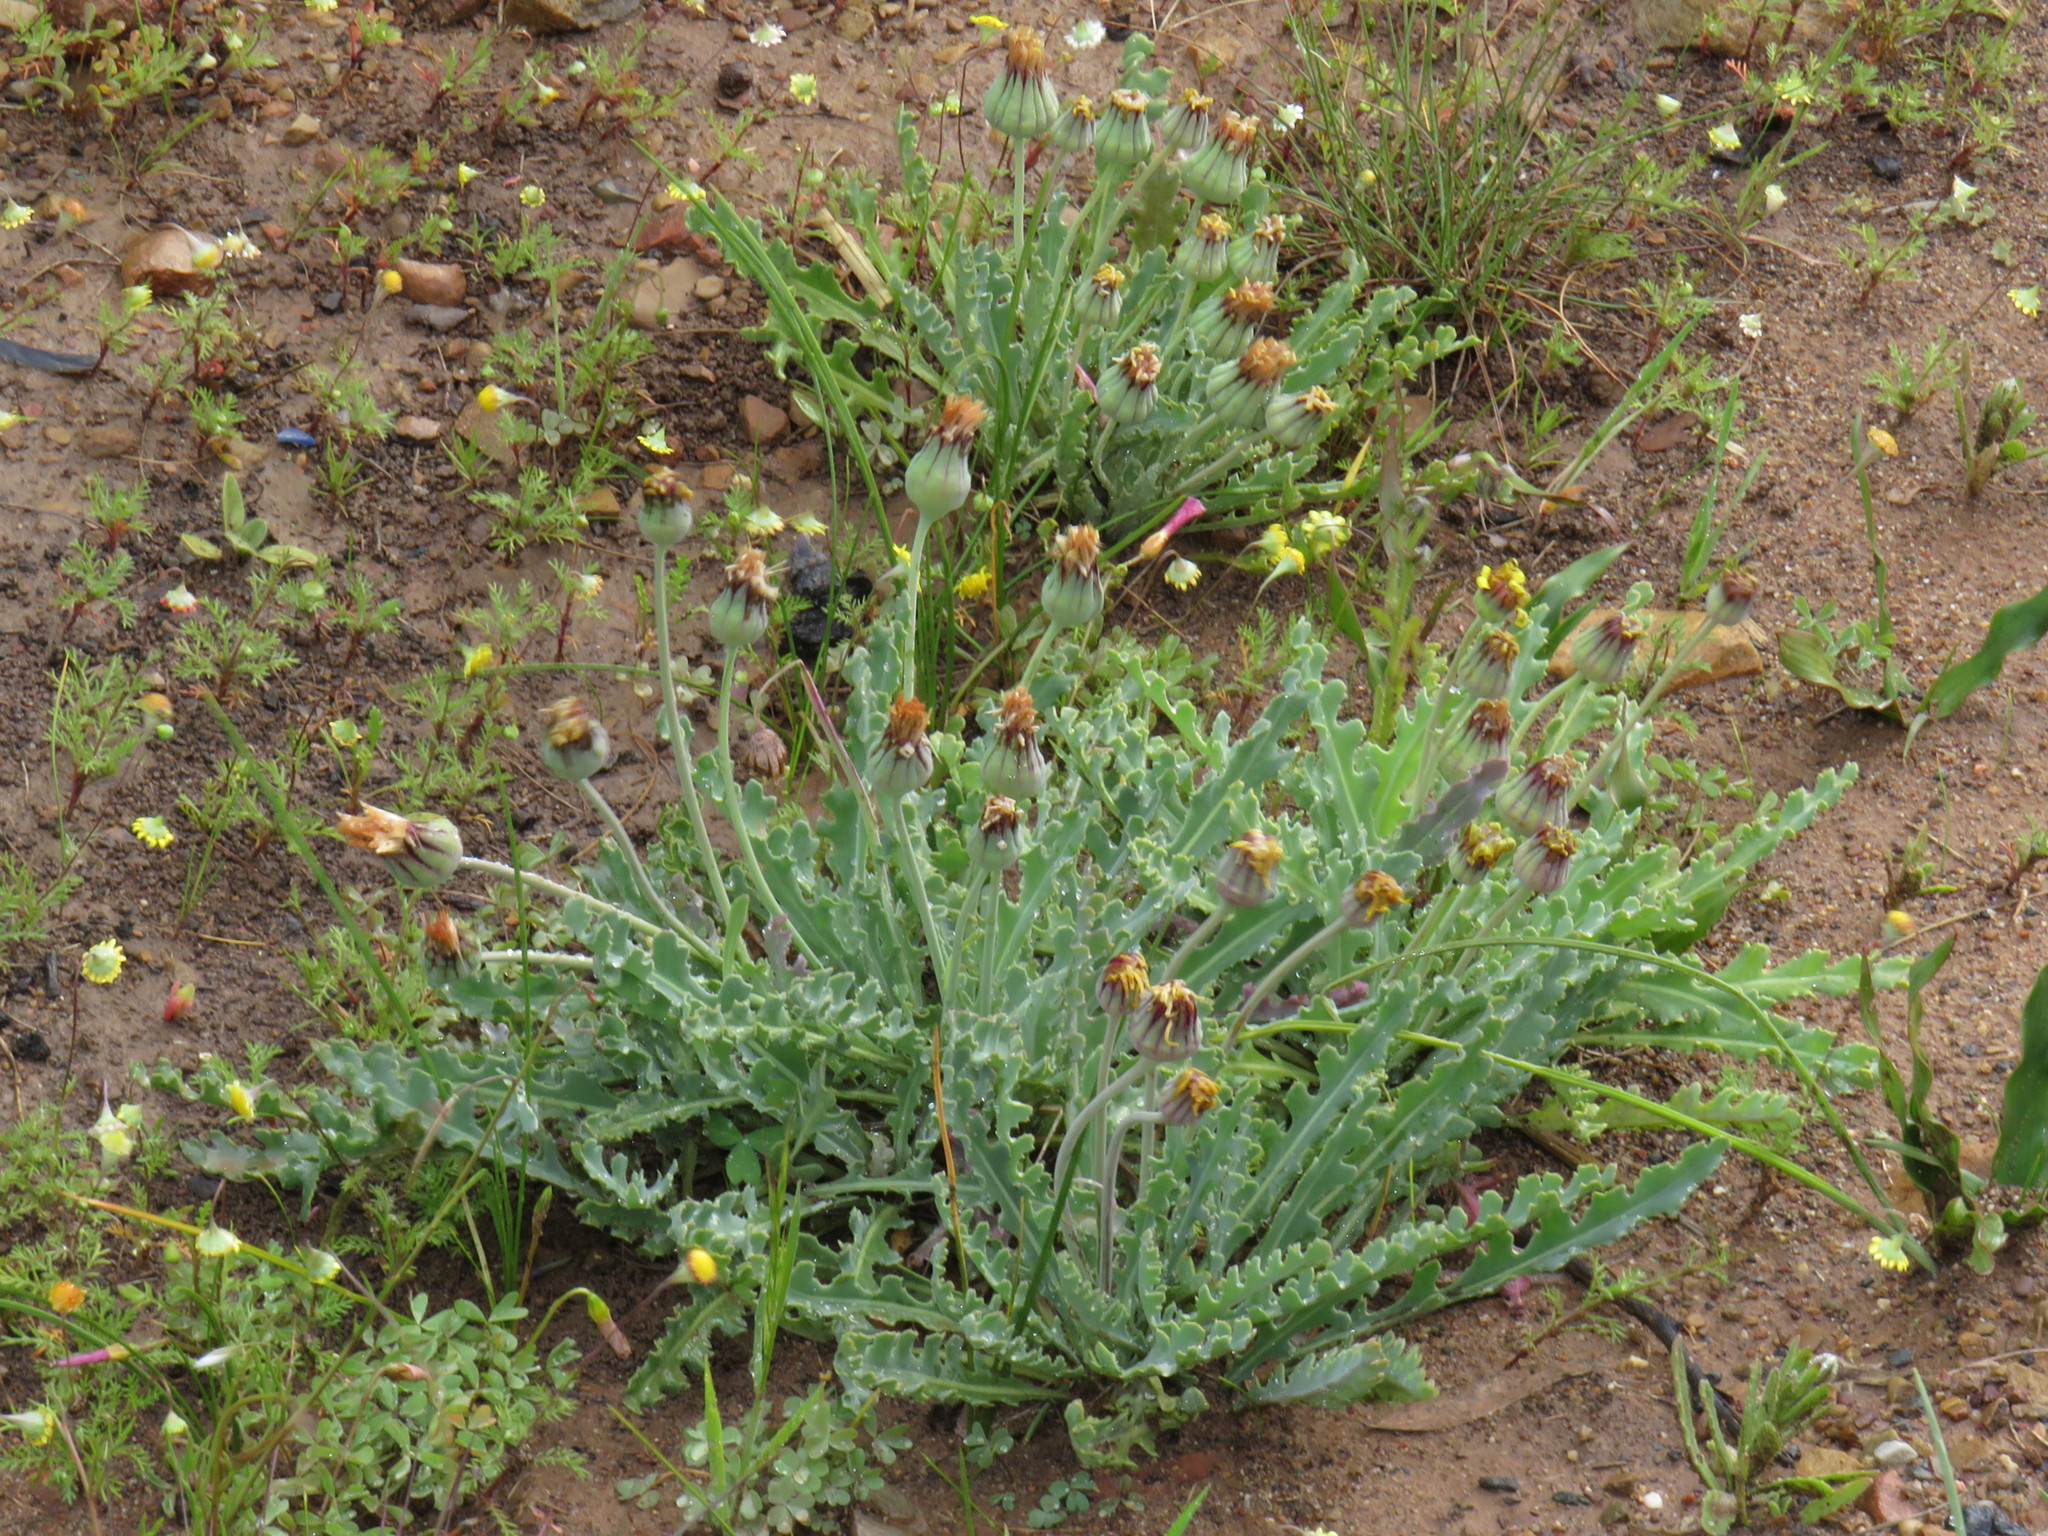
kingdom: Plantae
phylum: Tracheophyta
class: Magnoliopsida
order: Asterales
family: Asteraceae
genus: Othonna
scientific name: Othonna auriculifolia
